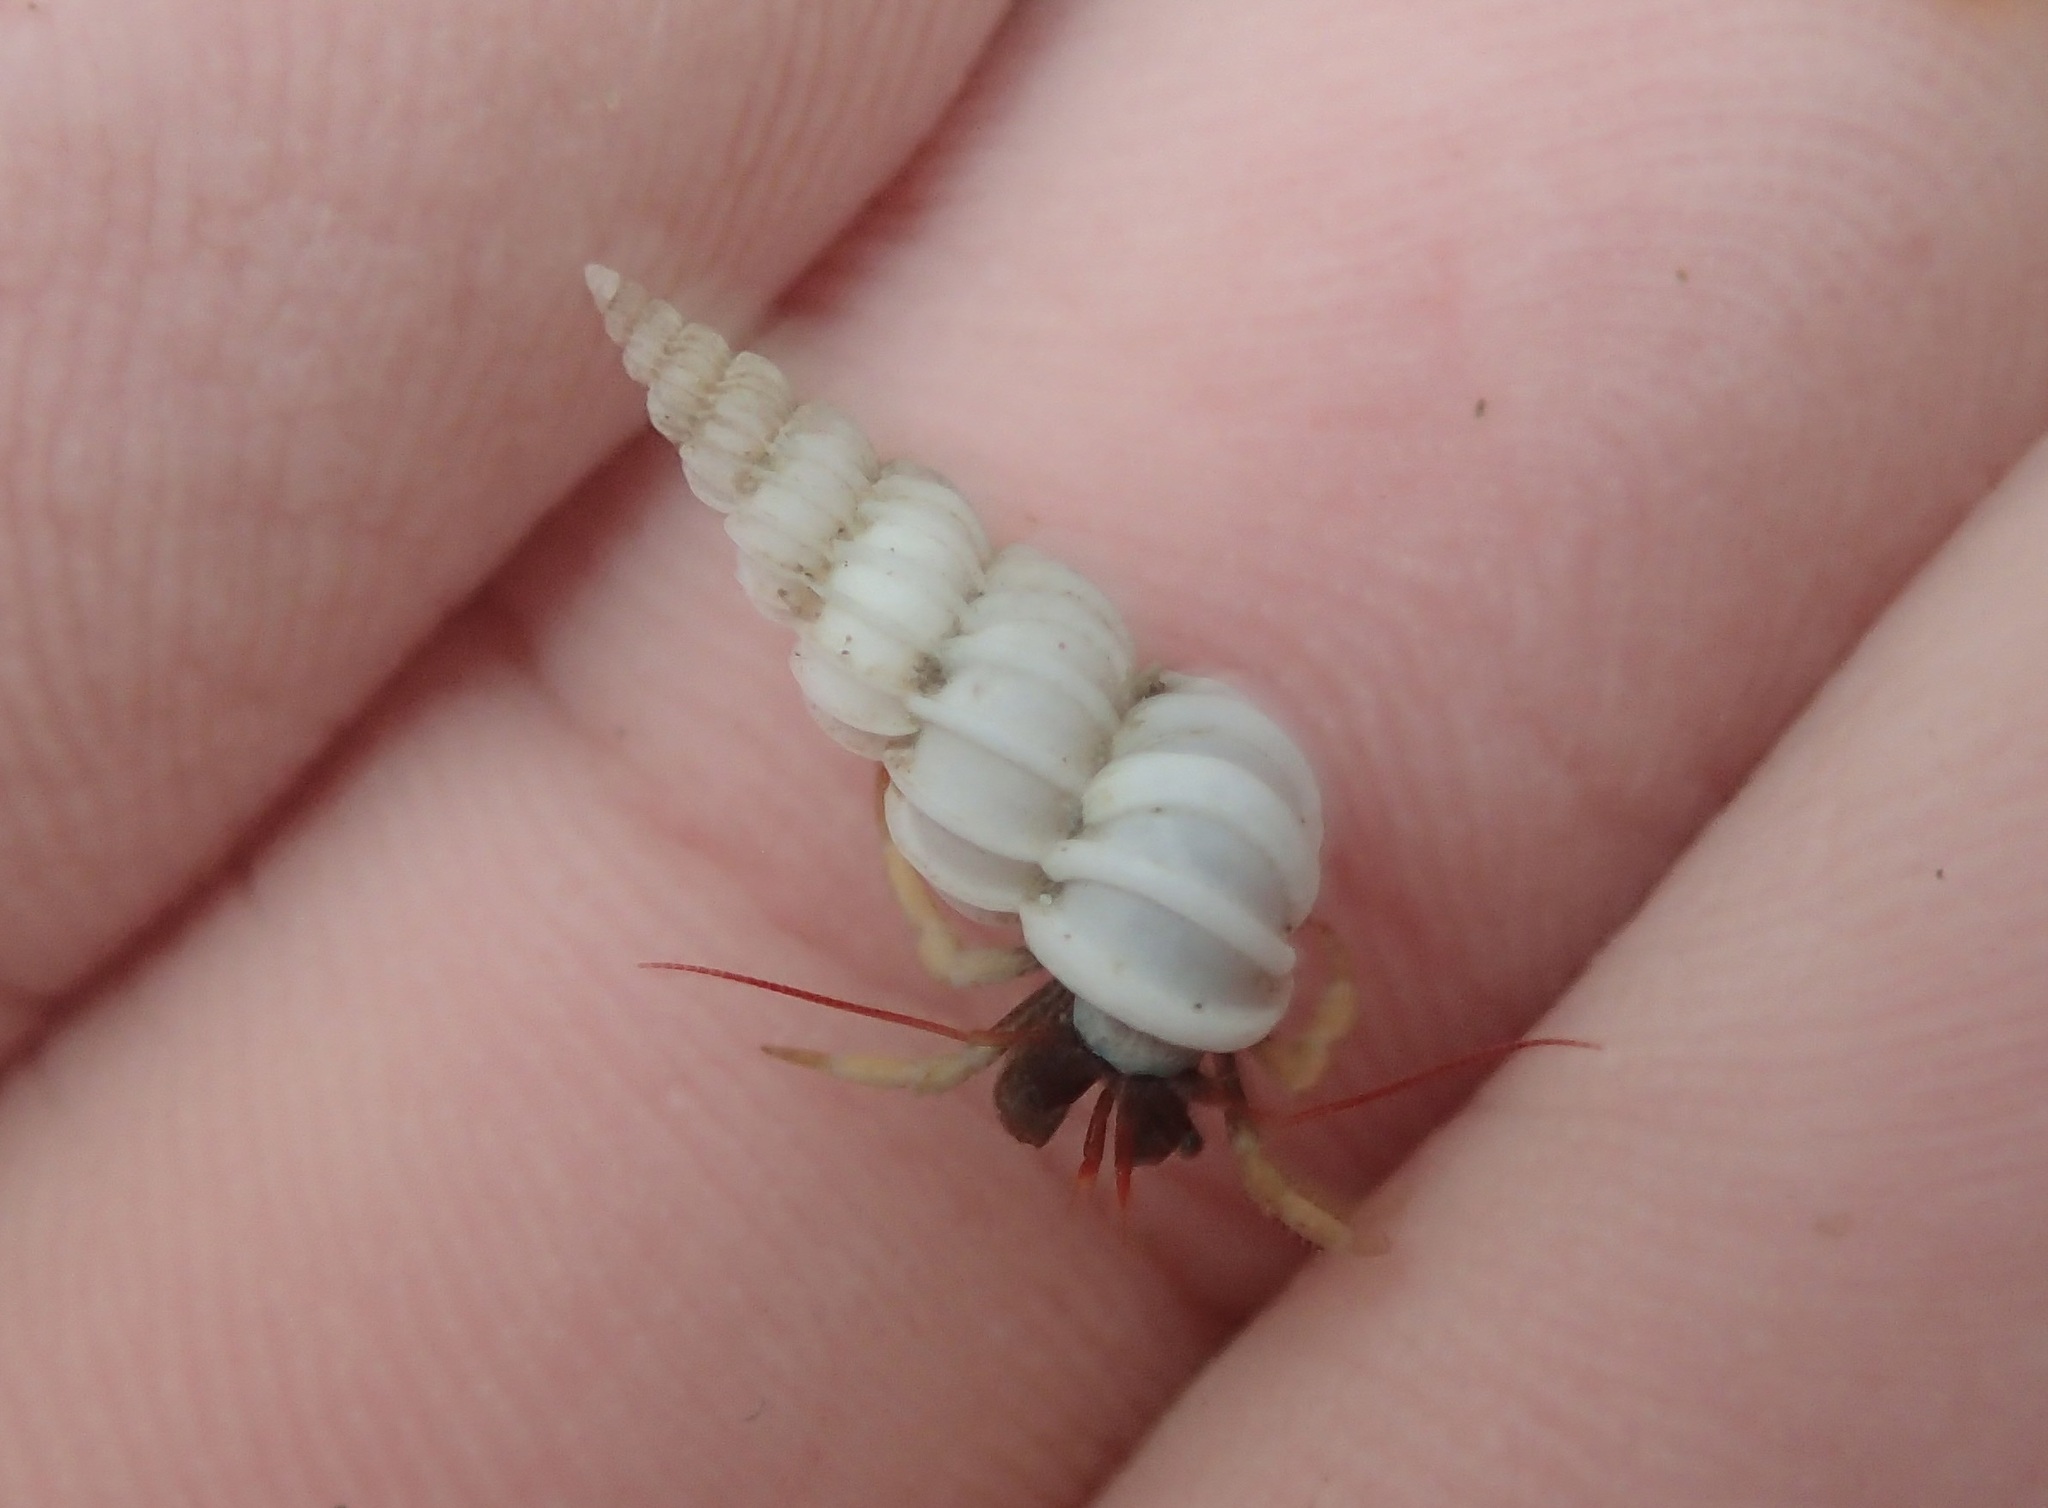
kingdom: Animalia
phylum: Mollusca
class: Gastropoda
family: Epitoniidae
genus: Epitonium
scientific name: Epitonium tinctum
